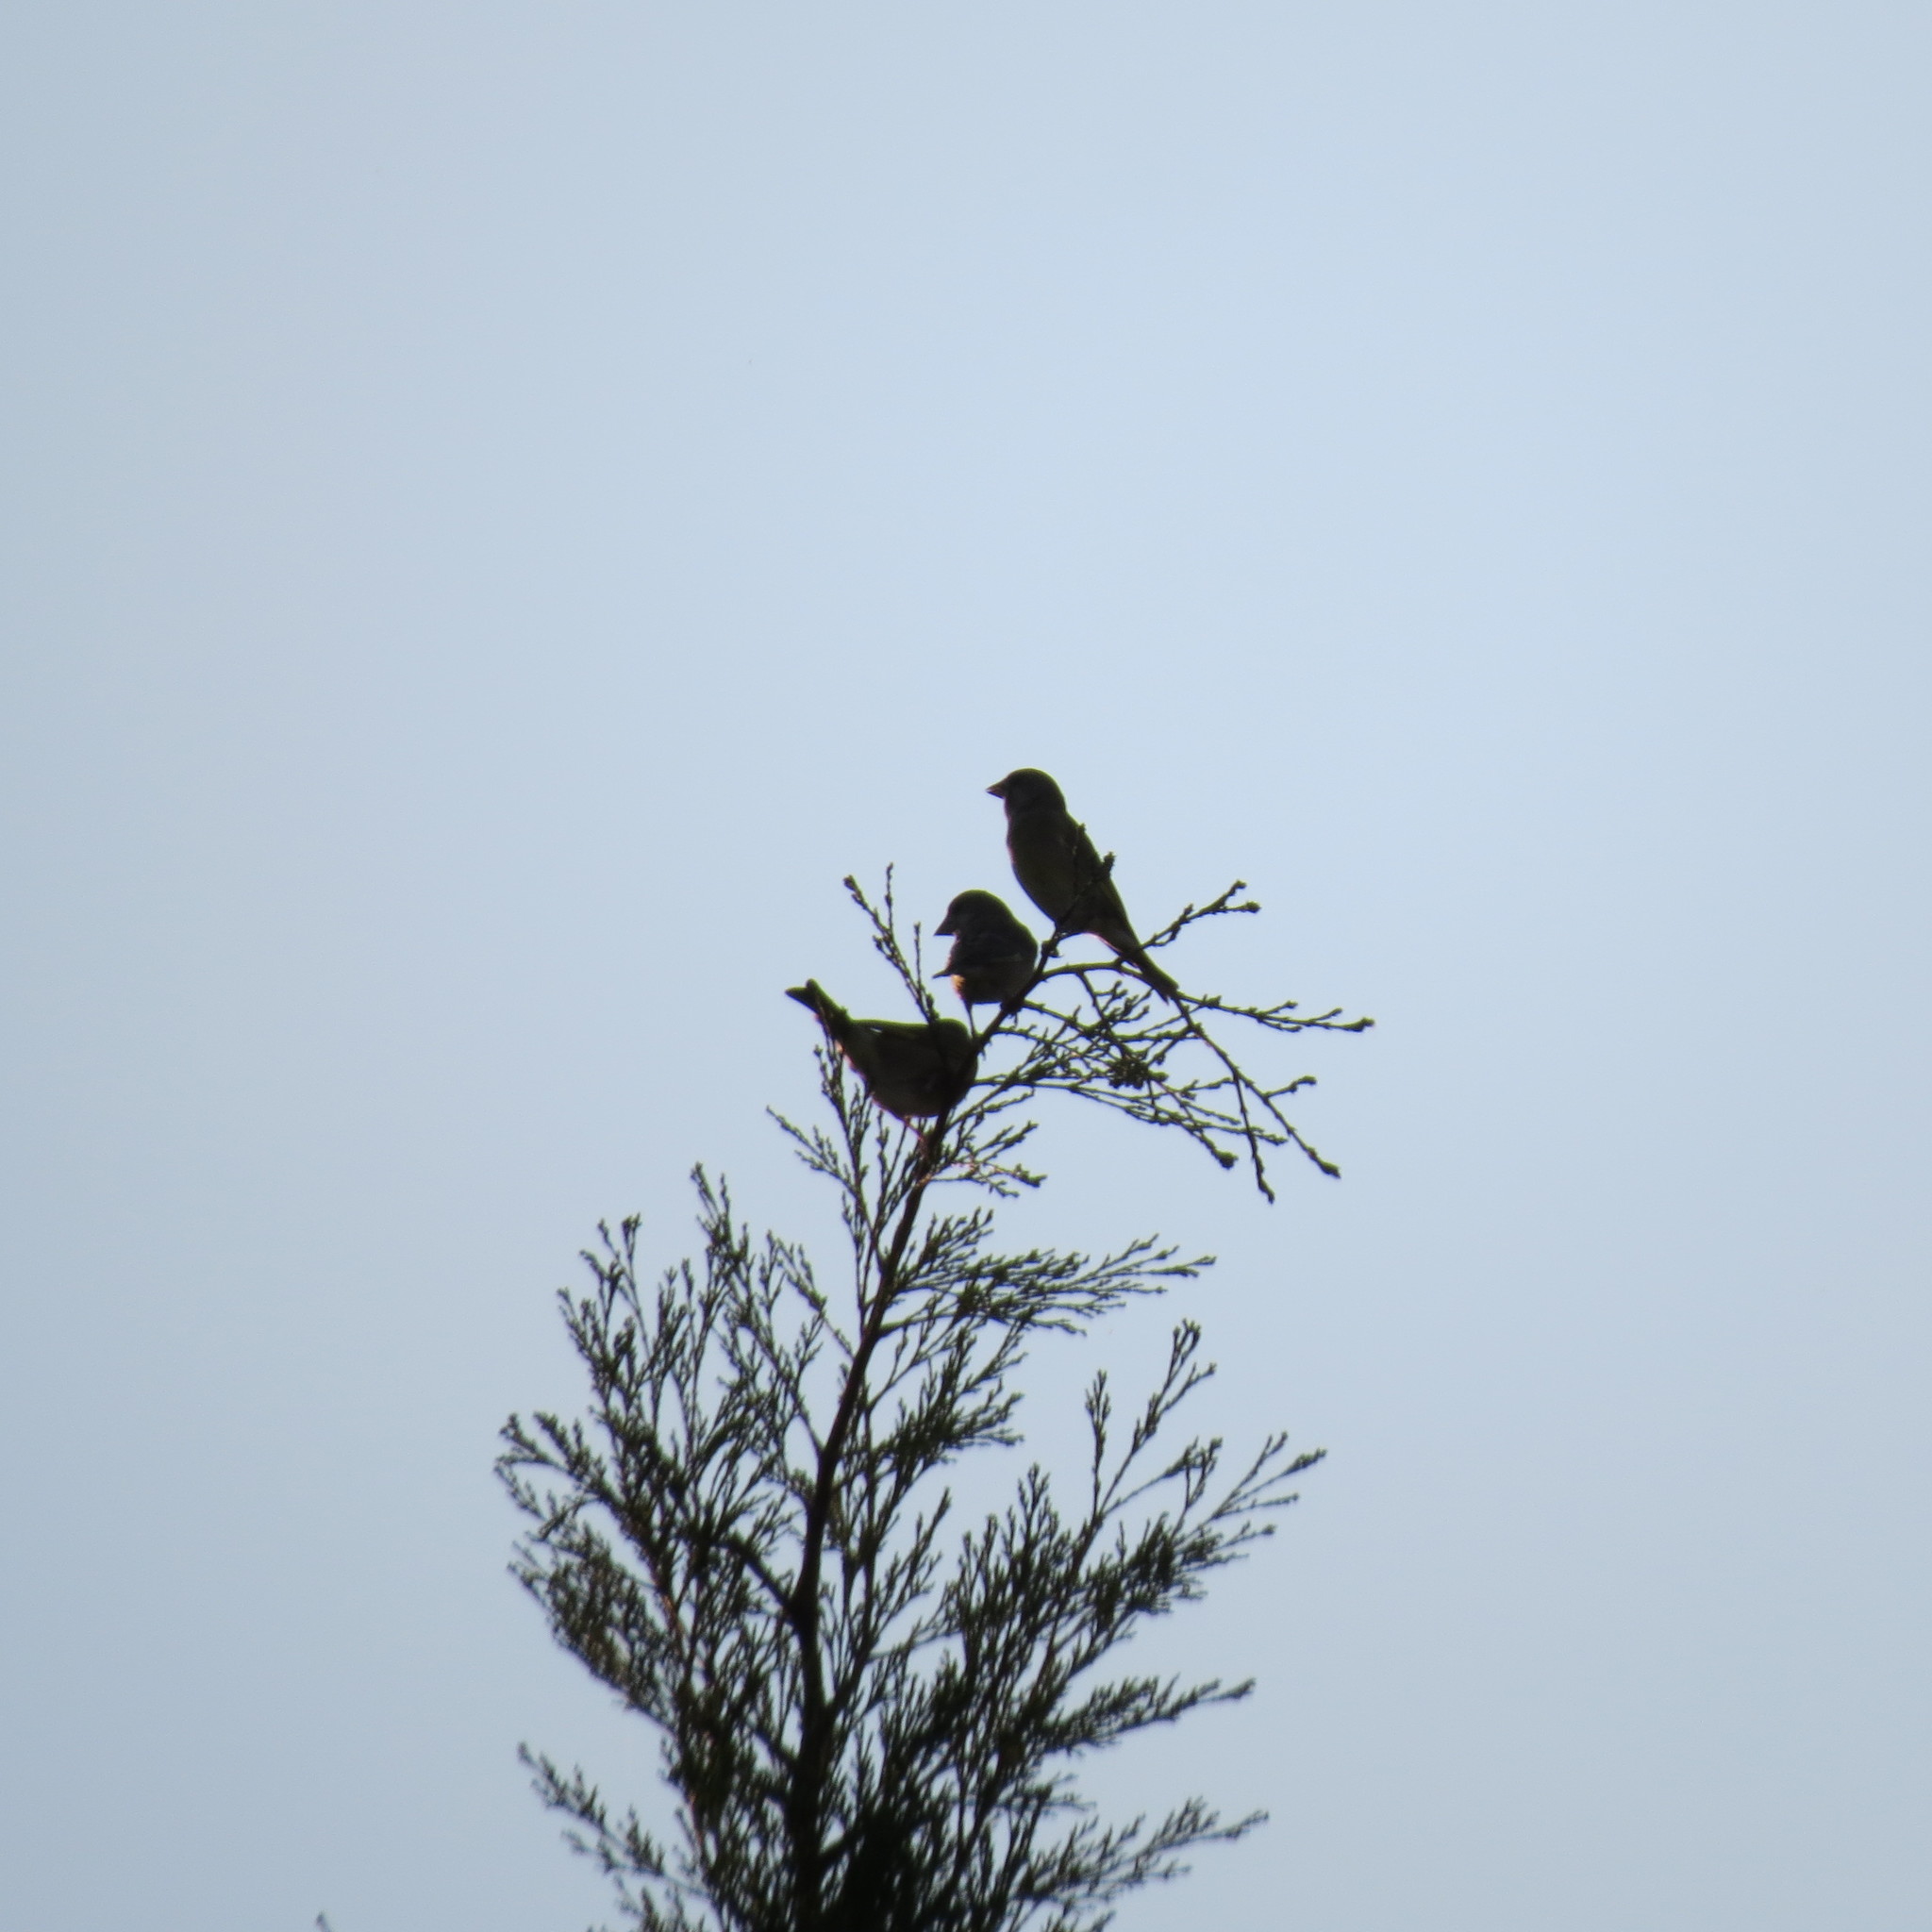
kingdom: Plantae
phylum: Tracheophyta
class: Liliopsida
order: Poales
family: Poaceae
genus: Chloris
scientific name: Chloris chloris
